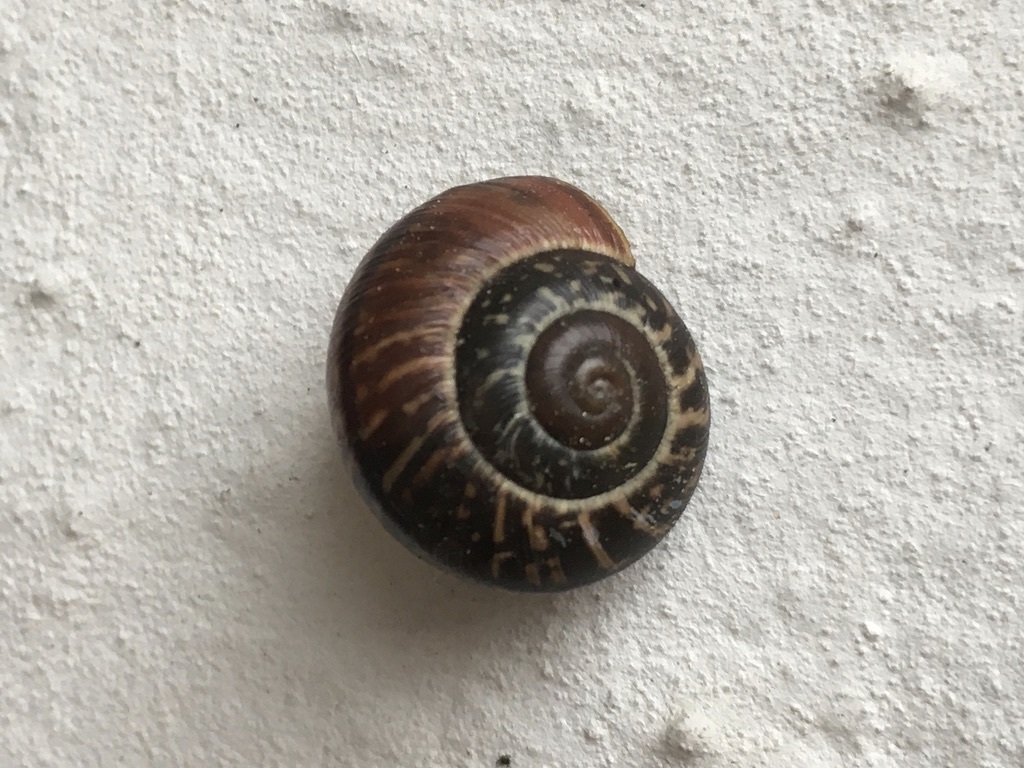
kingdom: Animalia
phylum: Mollusca
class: Gastropoda
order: Stylommatophora
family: Helicidae
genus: Arianta
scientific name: Arianta arbustorum
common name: Copse snail
